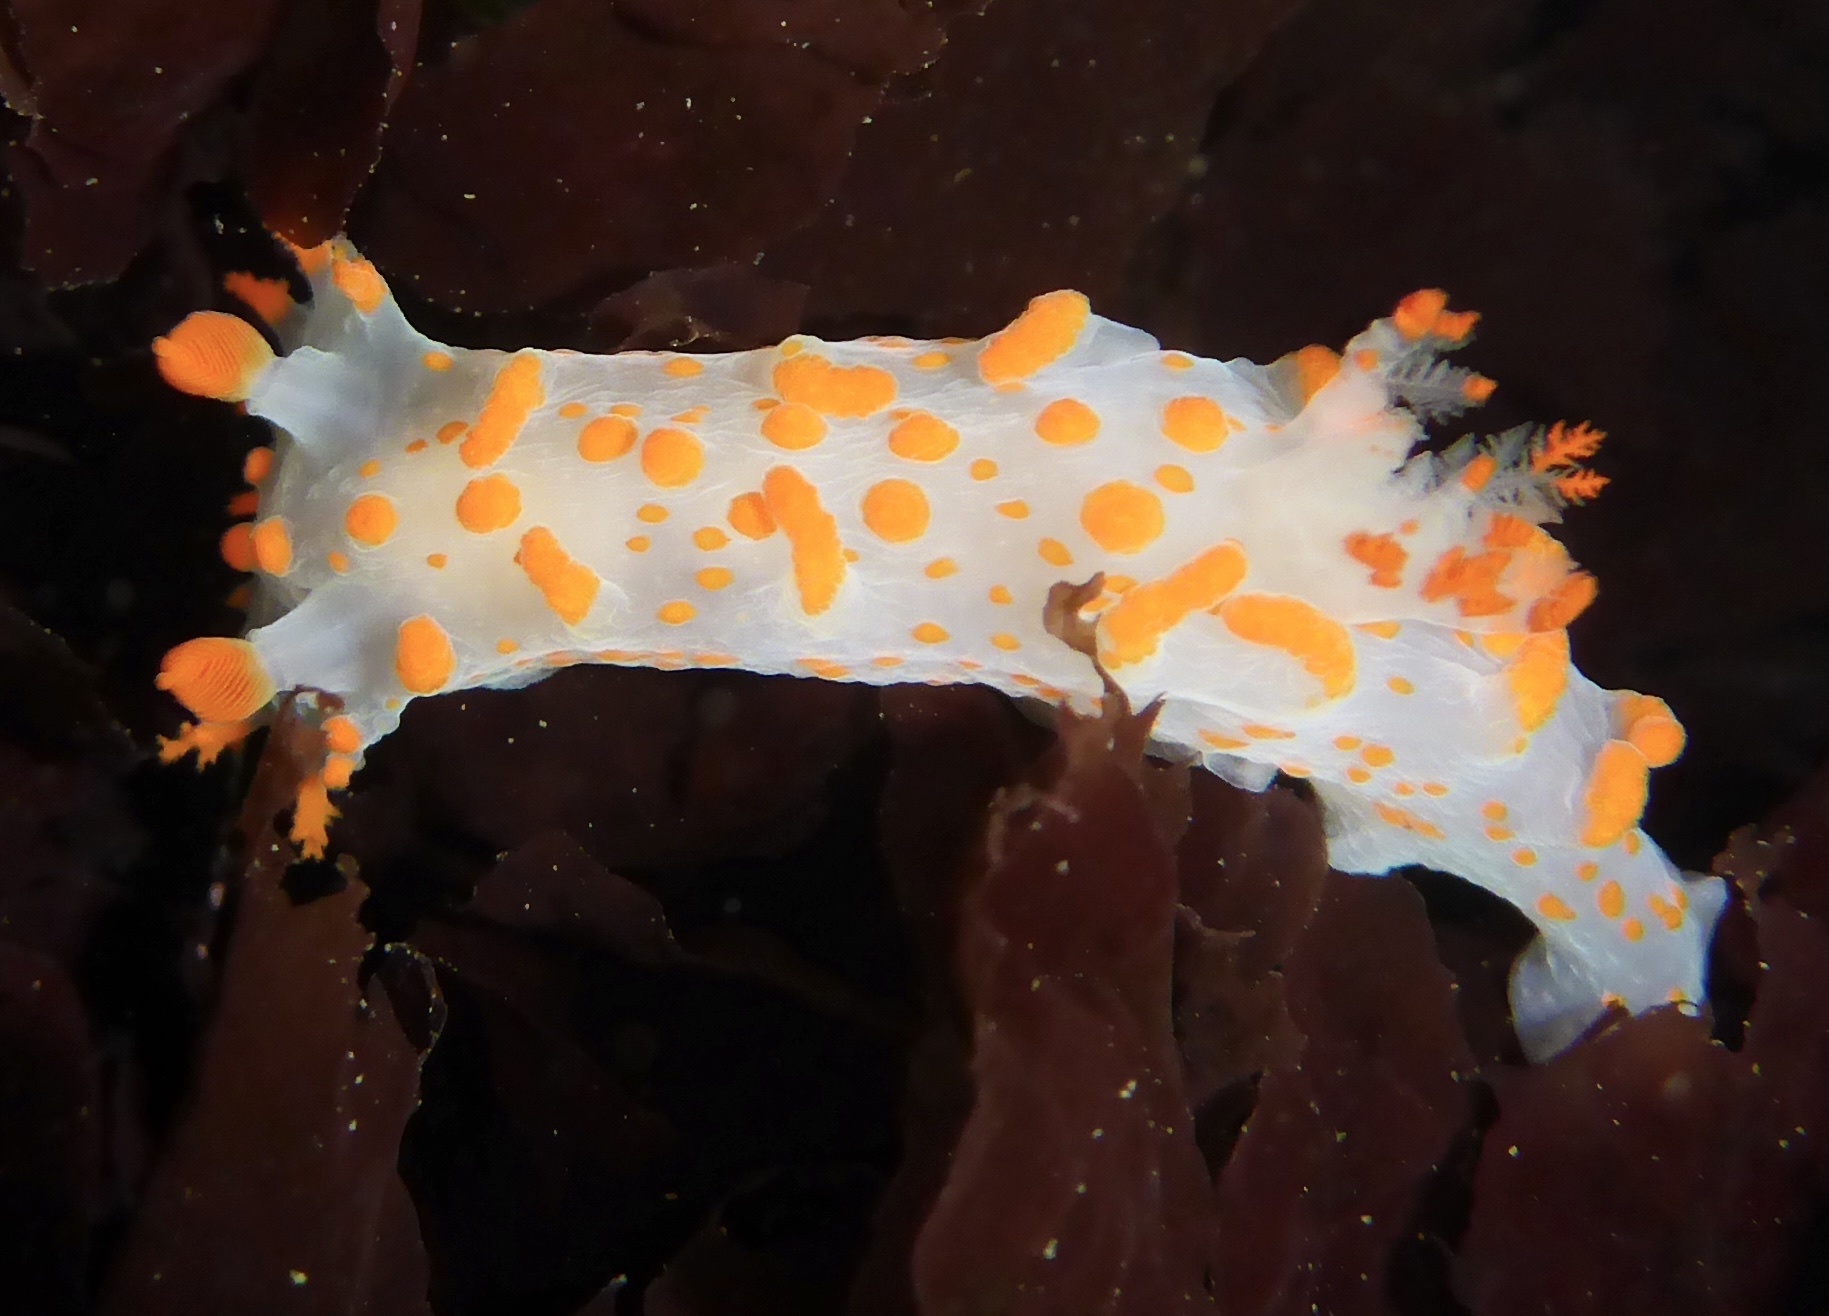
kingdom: Animalia
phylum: Mollusca
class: Gastropoda
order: Nudibranchia
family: Polyceridae
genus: Triopha
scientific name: Triopha catalinae
